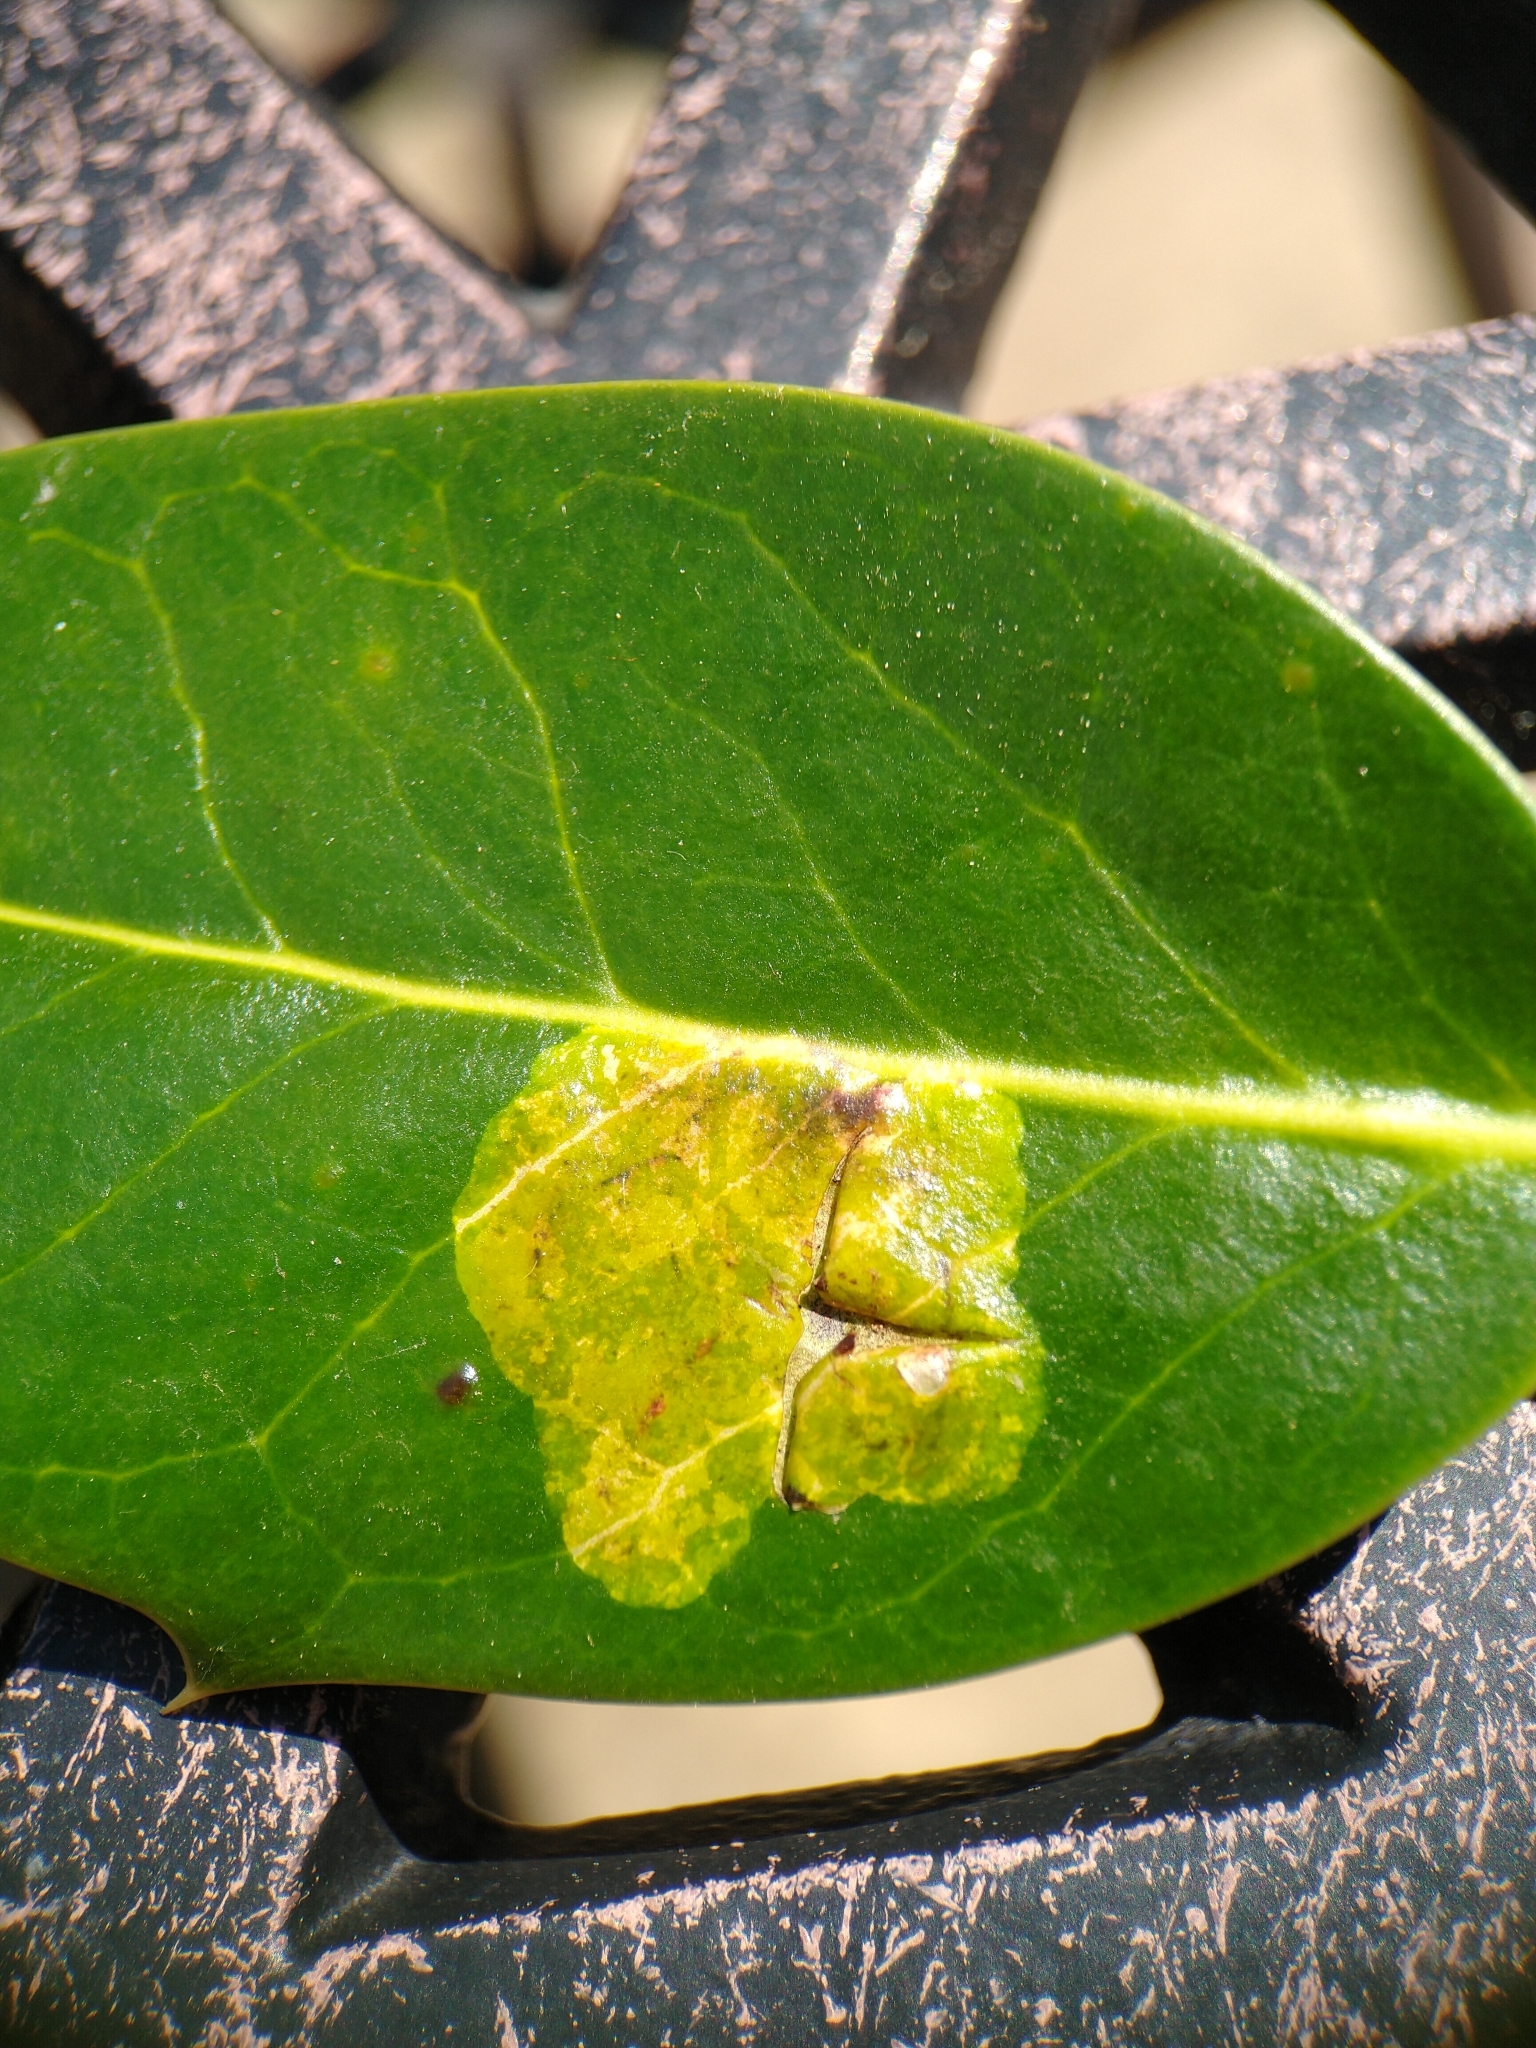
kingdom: Animalia
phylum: Arthropoda
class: Insecta
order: Diptera
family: Agromyzidae
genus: Phytomyza
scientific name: Phytomyza ilicis
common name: Holly leafminer
